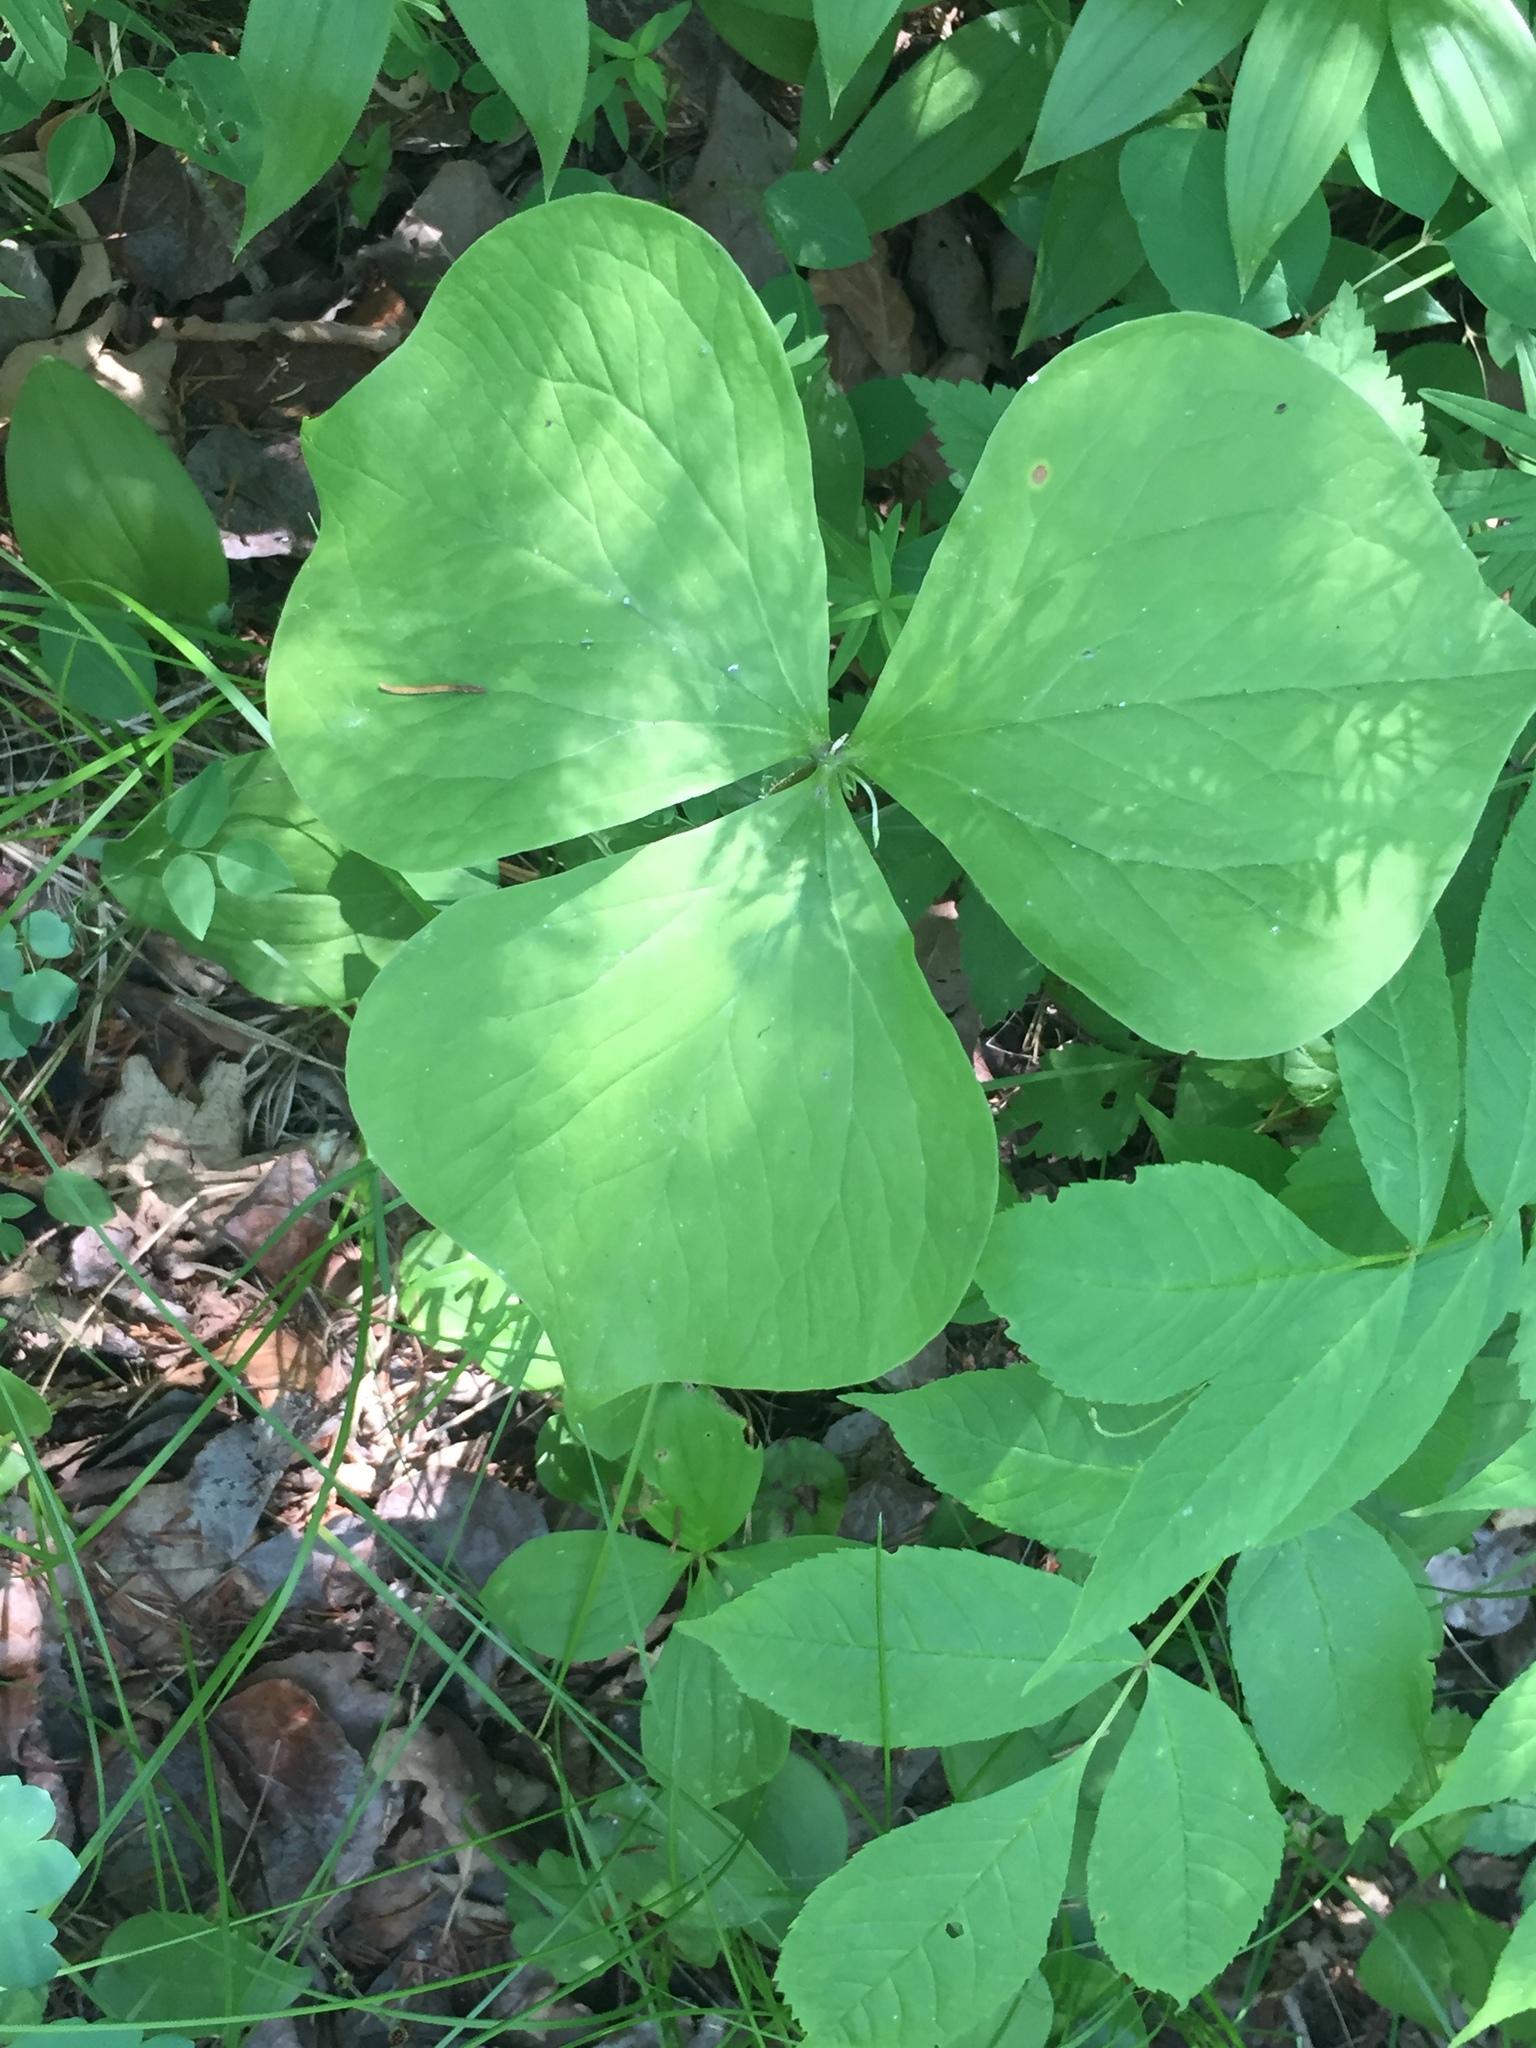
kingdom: Plantae
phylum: Tracheophyta
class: Liliopsida
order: Liliales
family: Melanthiaceae
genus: Trillium
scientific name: Trillium cernuum
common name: Nodding trillium
